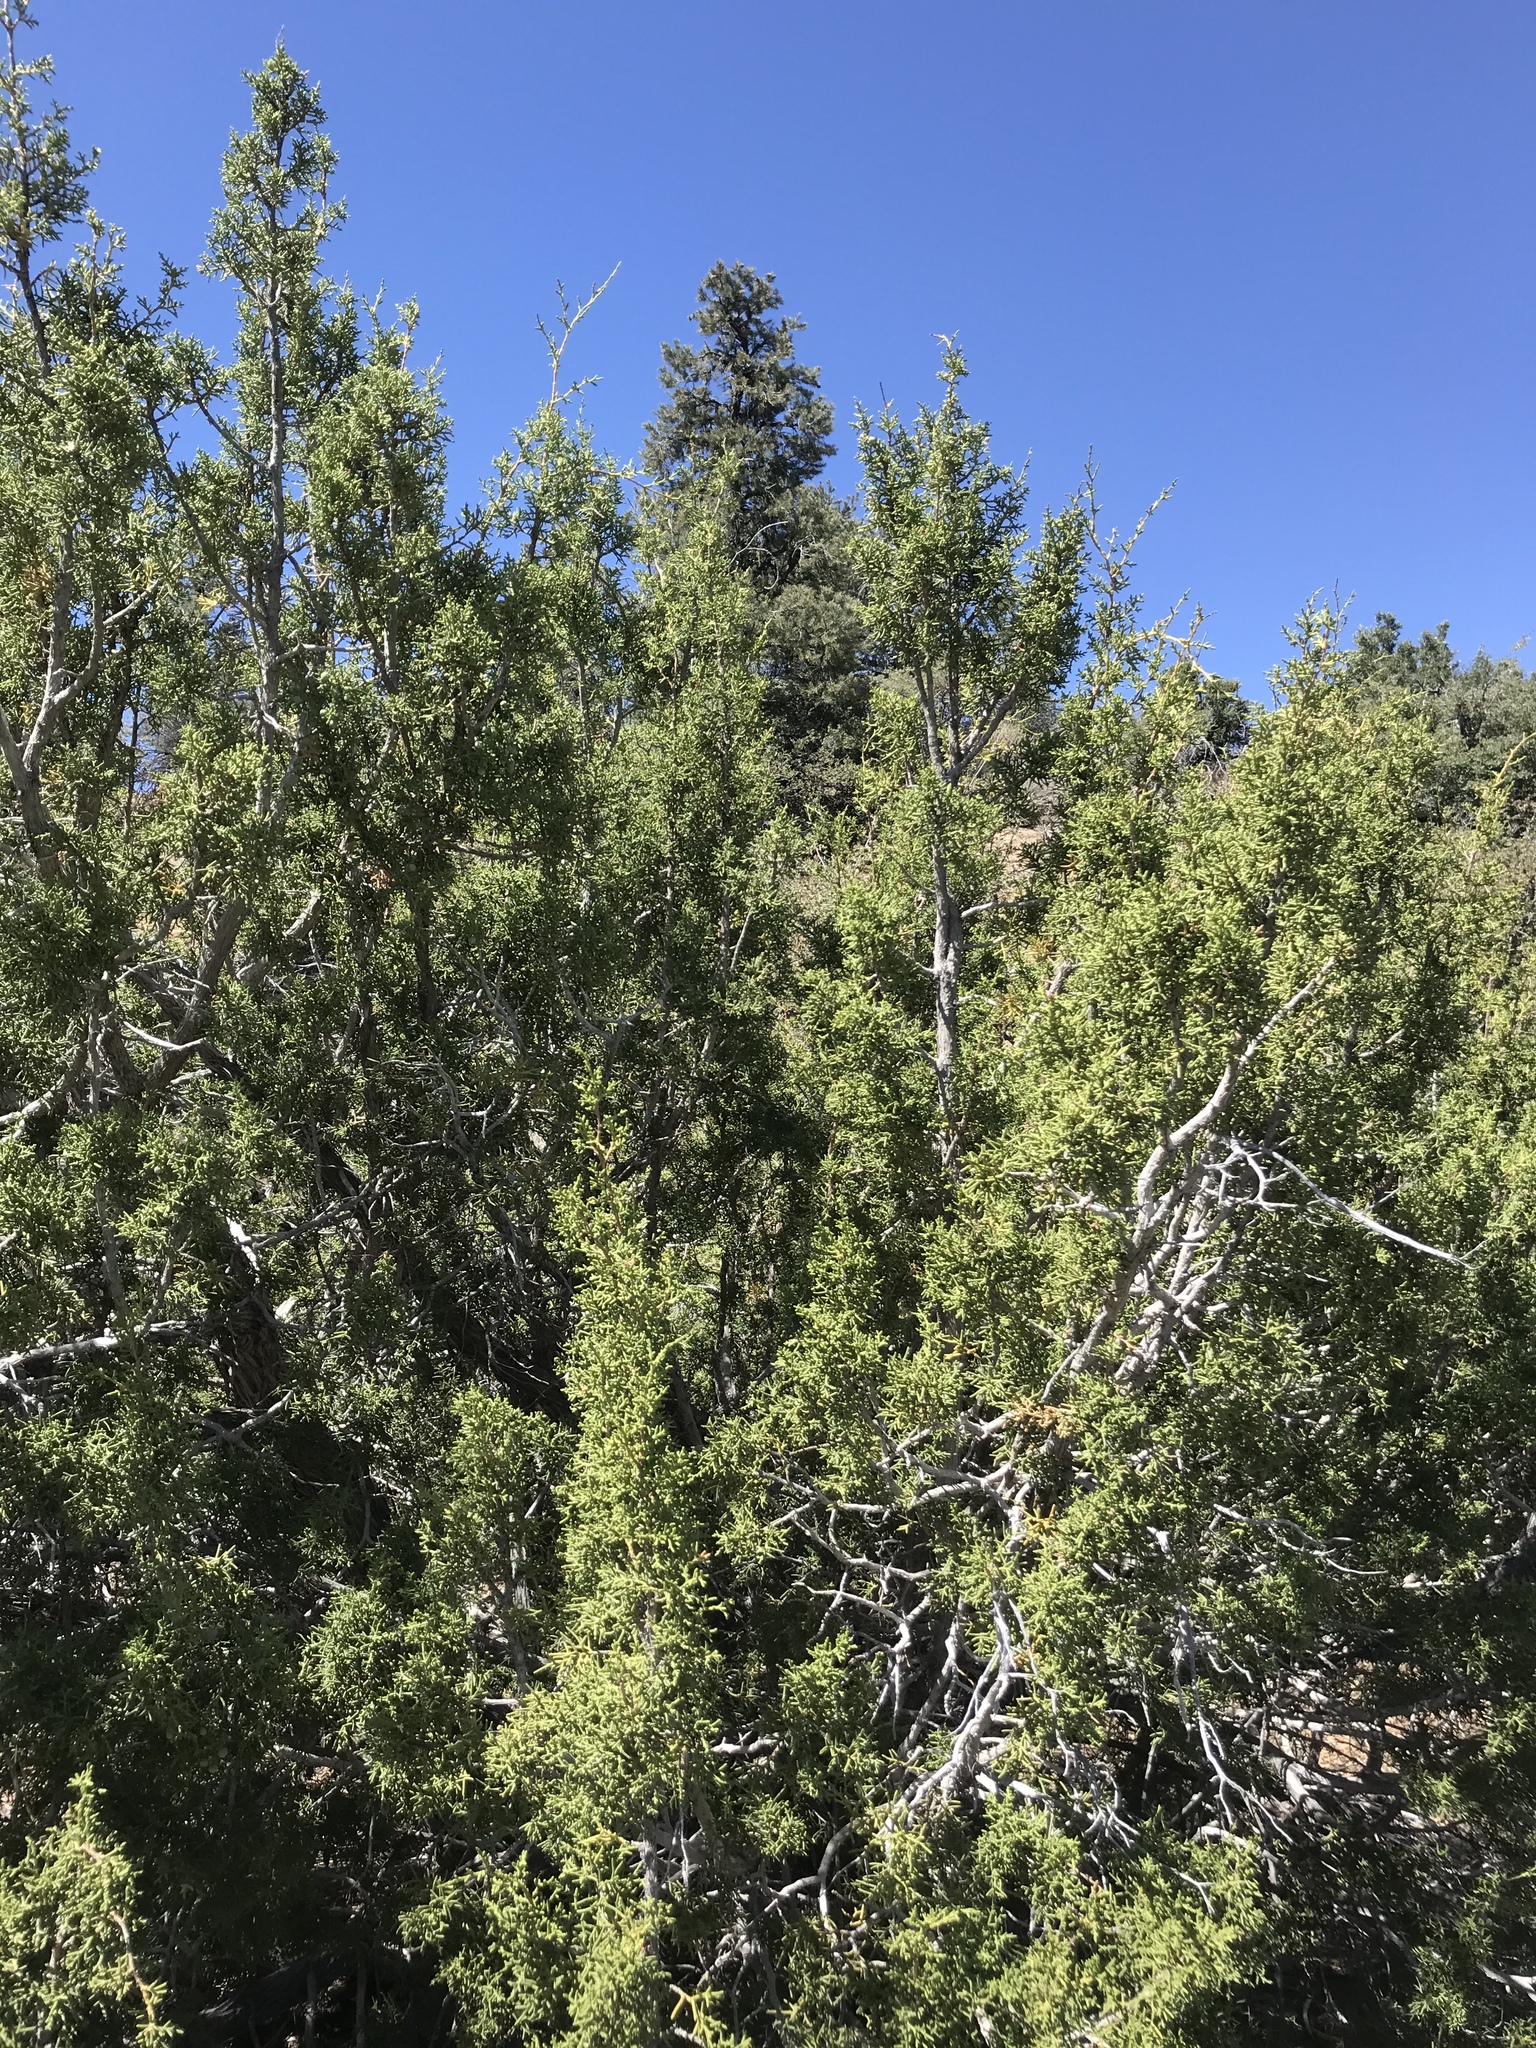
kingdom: Plantae
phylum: Tracheophyta
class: Pinopsida
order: Pinales
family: Cupressaceae
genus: Juniperus
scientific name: Juniperus californica
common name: California juniper
